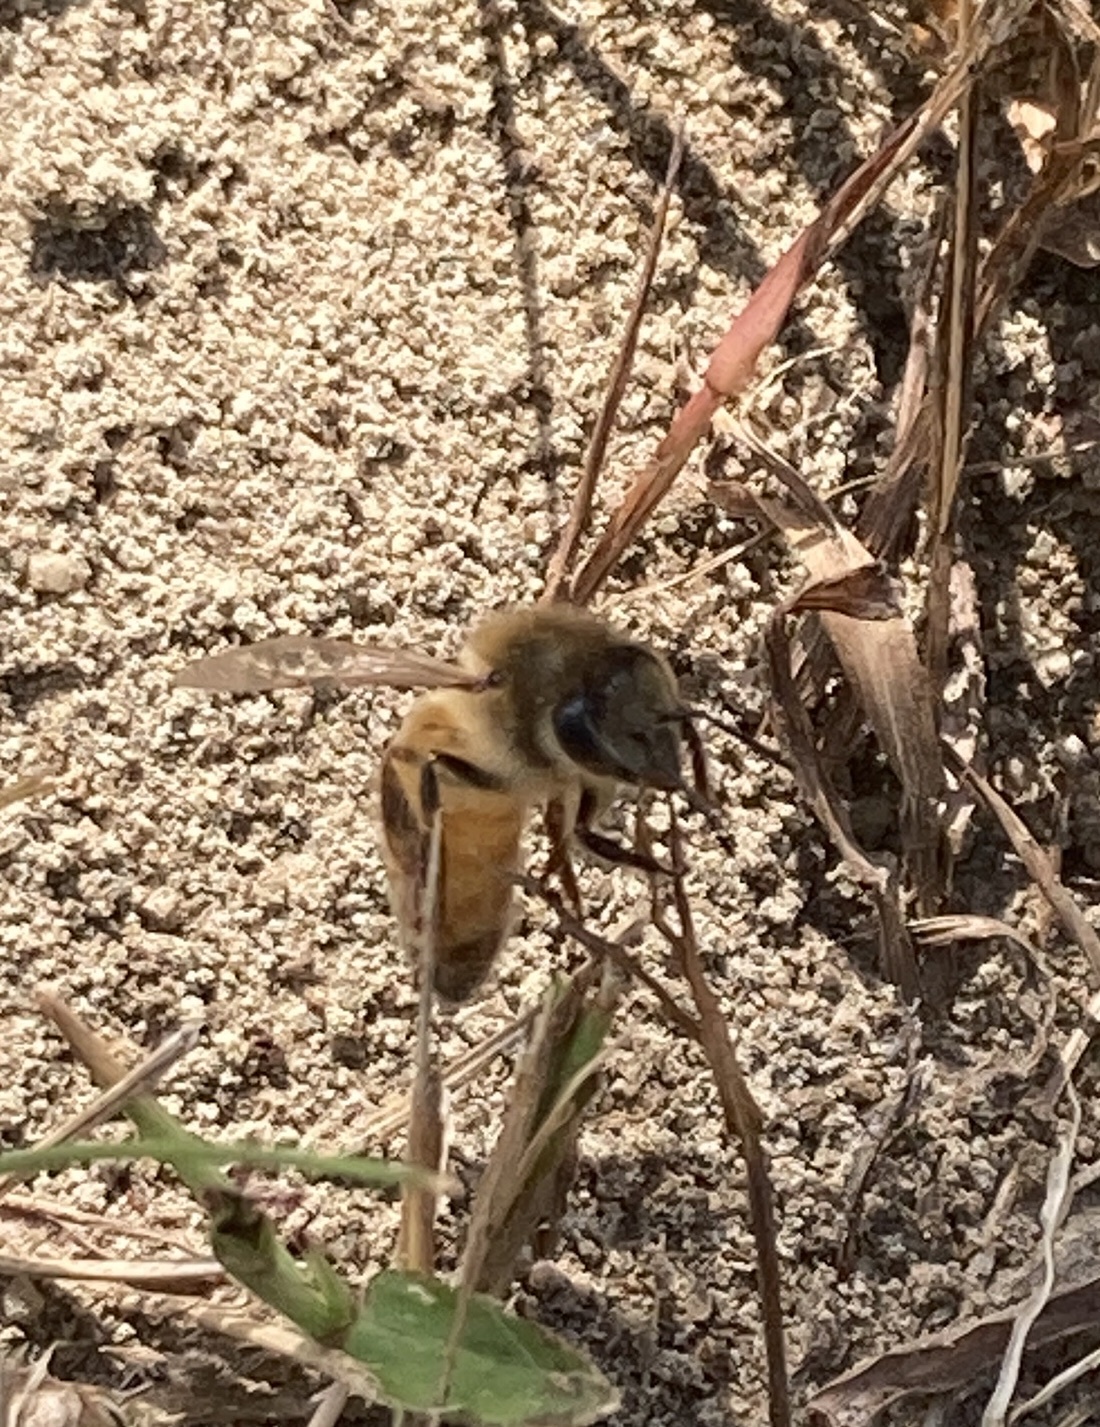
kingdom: Animalia
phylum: Arthropoda
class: Insecta
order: Hymenoptera
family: Apidae
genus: Apis
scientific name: Apis mellifera
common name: Honey bee
